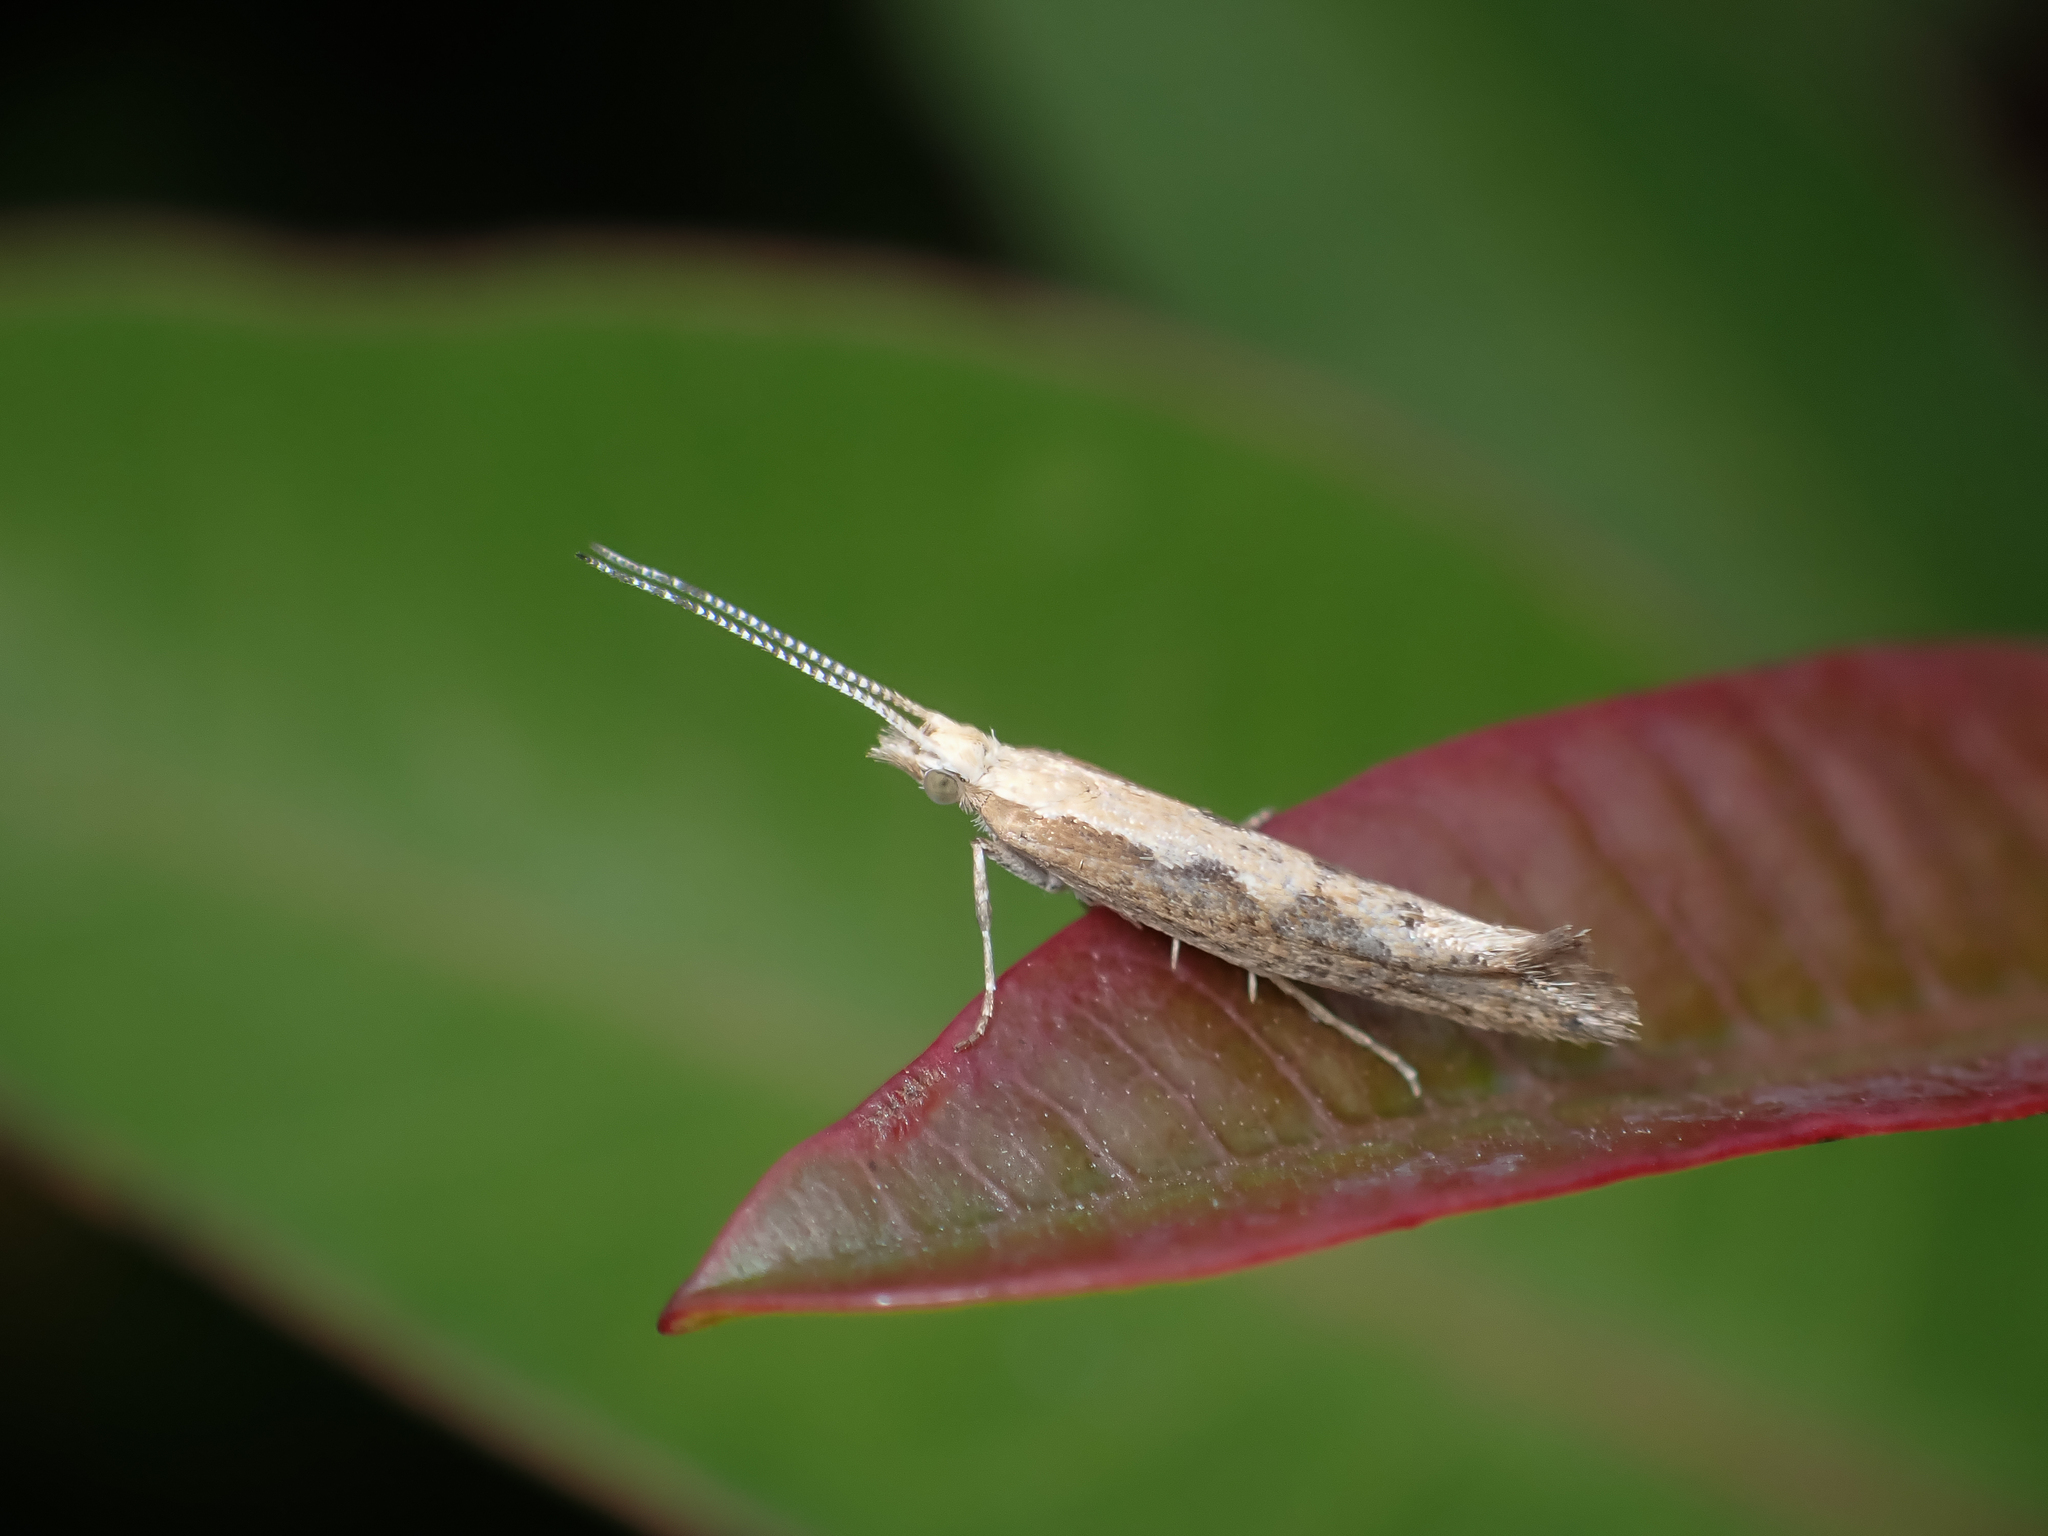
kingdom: Animalia
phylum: Arthropoda
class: Insecta
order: Lepidoptera
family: Plutellidae
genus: Plutella
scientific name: Plutella xylostella
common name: Diamond-back moth
